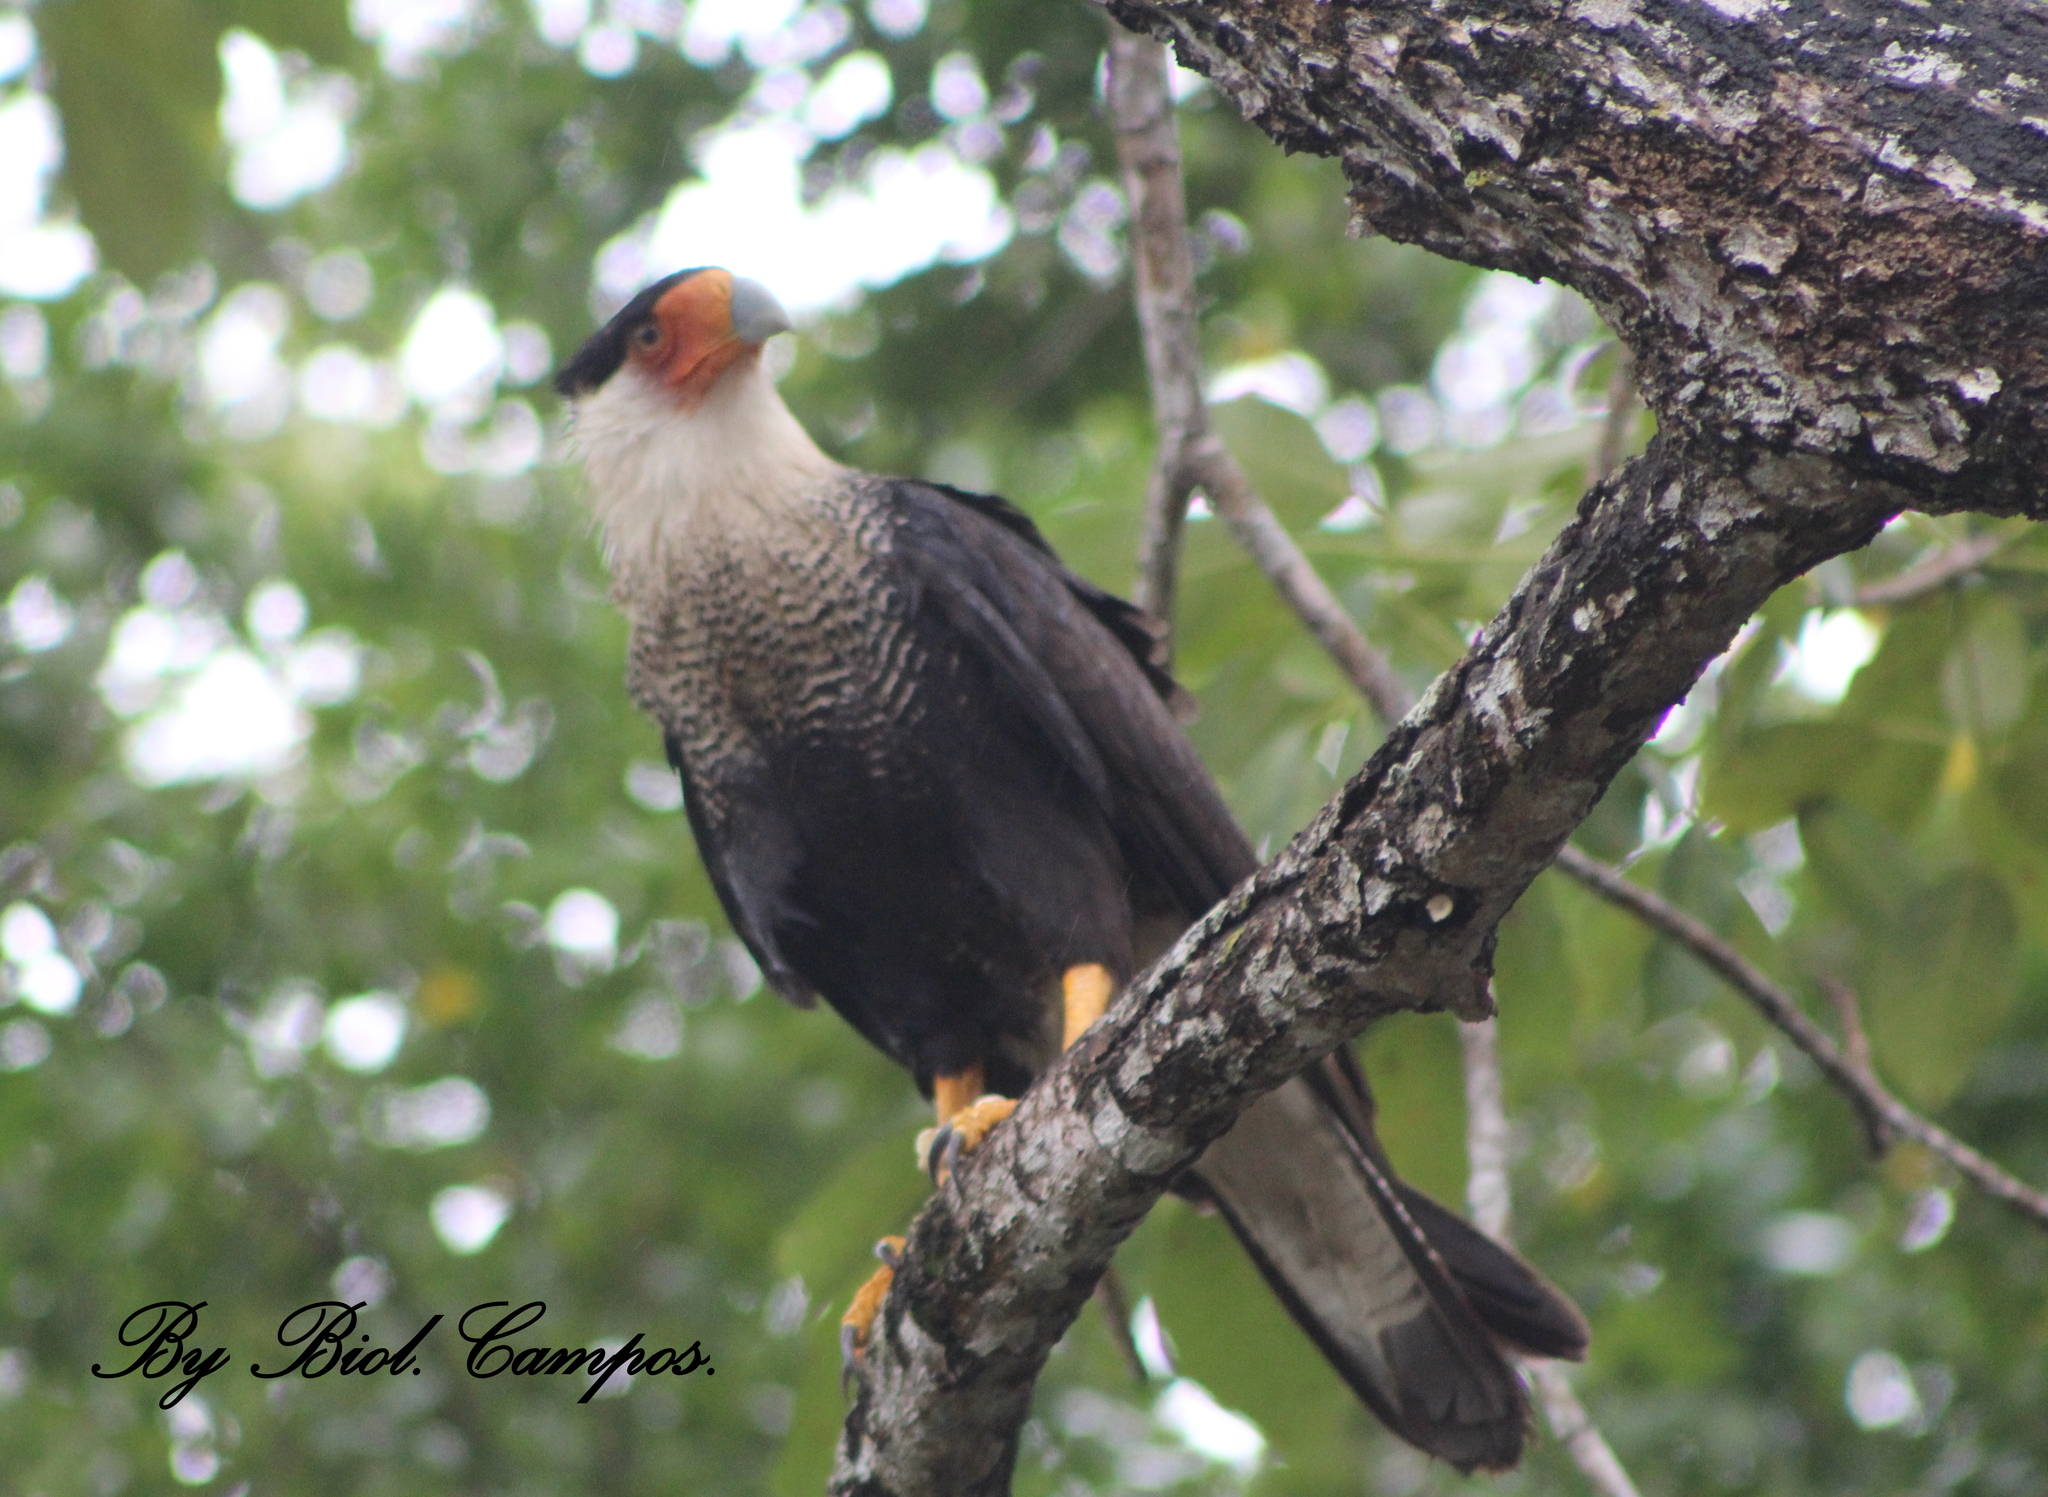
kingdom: Animalia
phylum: Chordata
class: Aves
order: Falconiformes
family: Falconidae
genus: Caracara
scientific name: Caracara plancus
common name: Southern caracara
